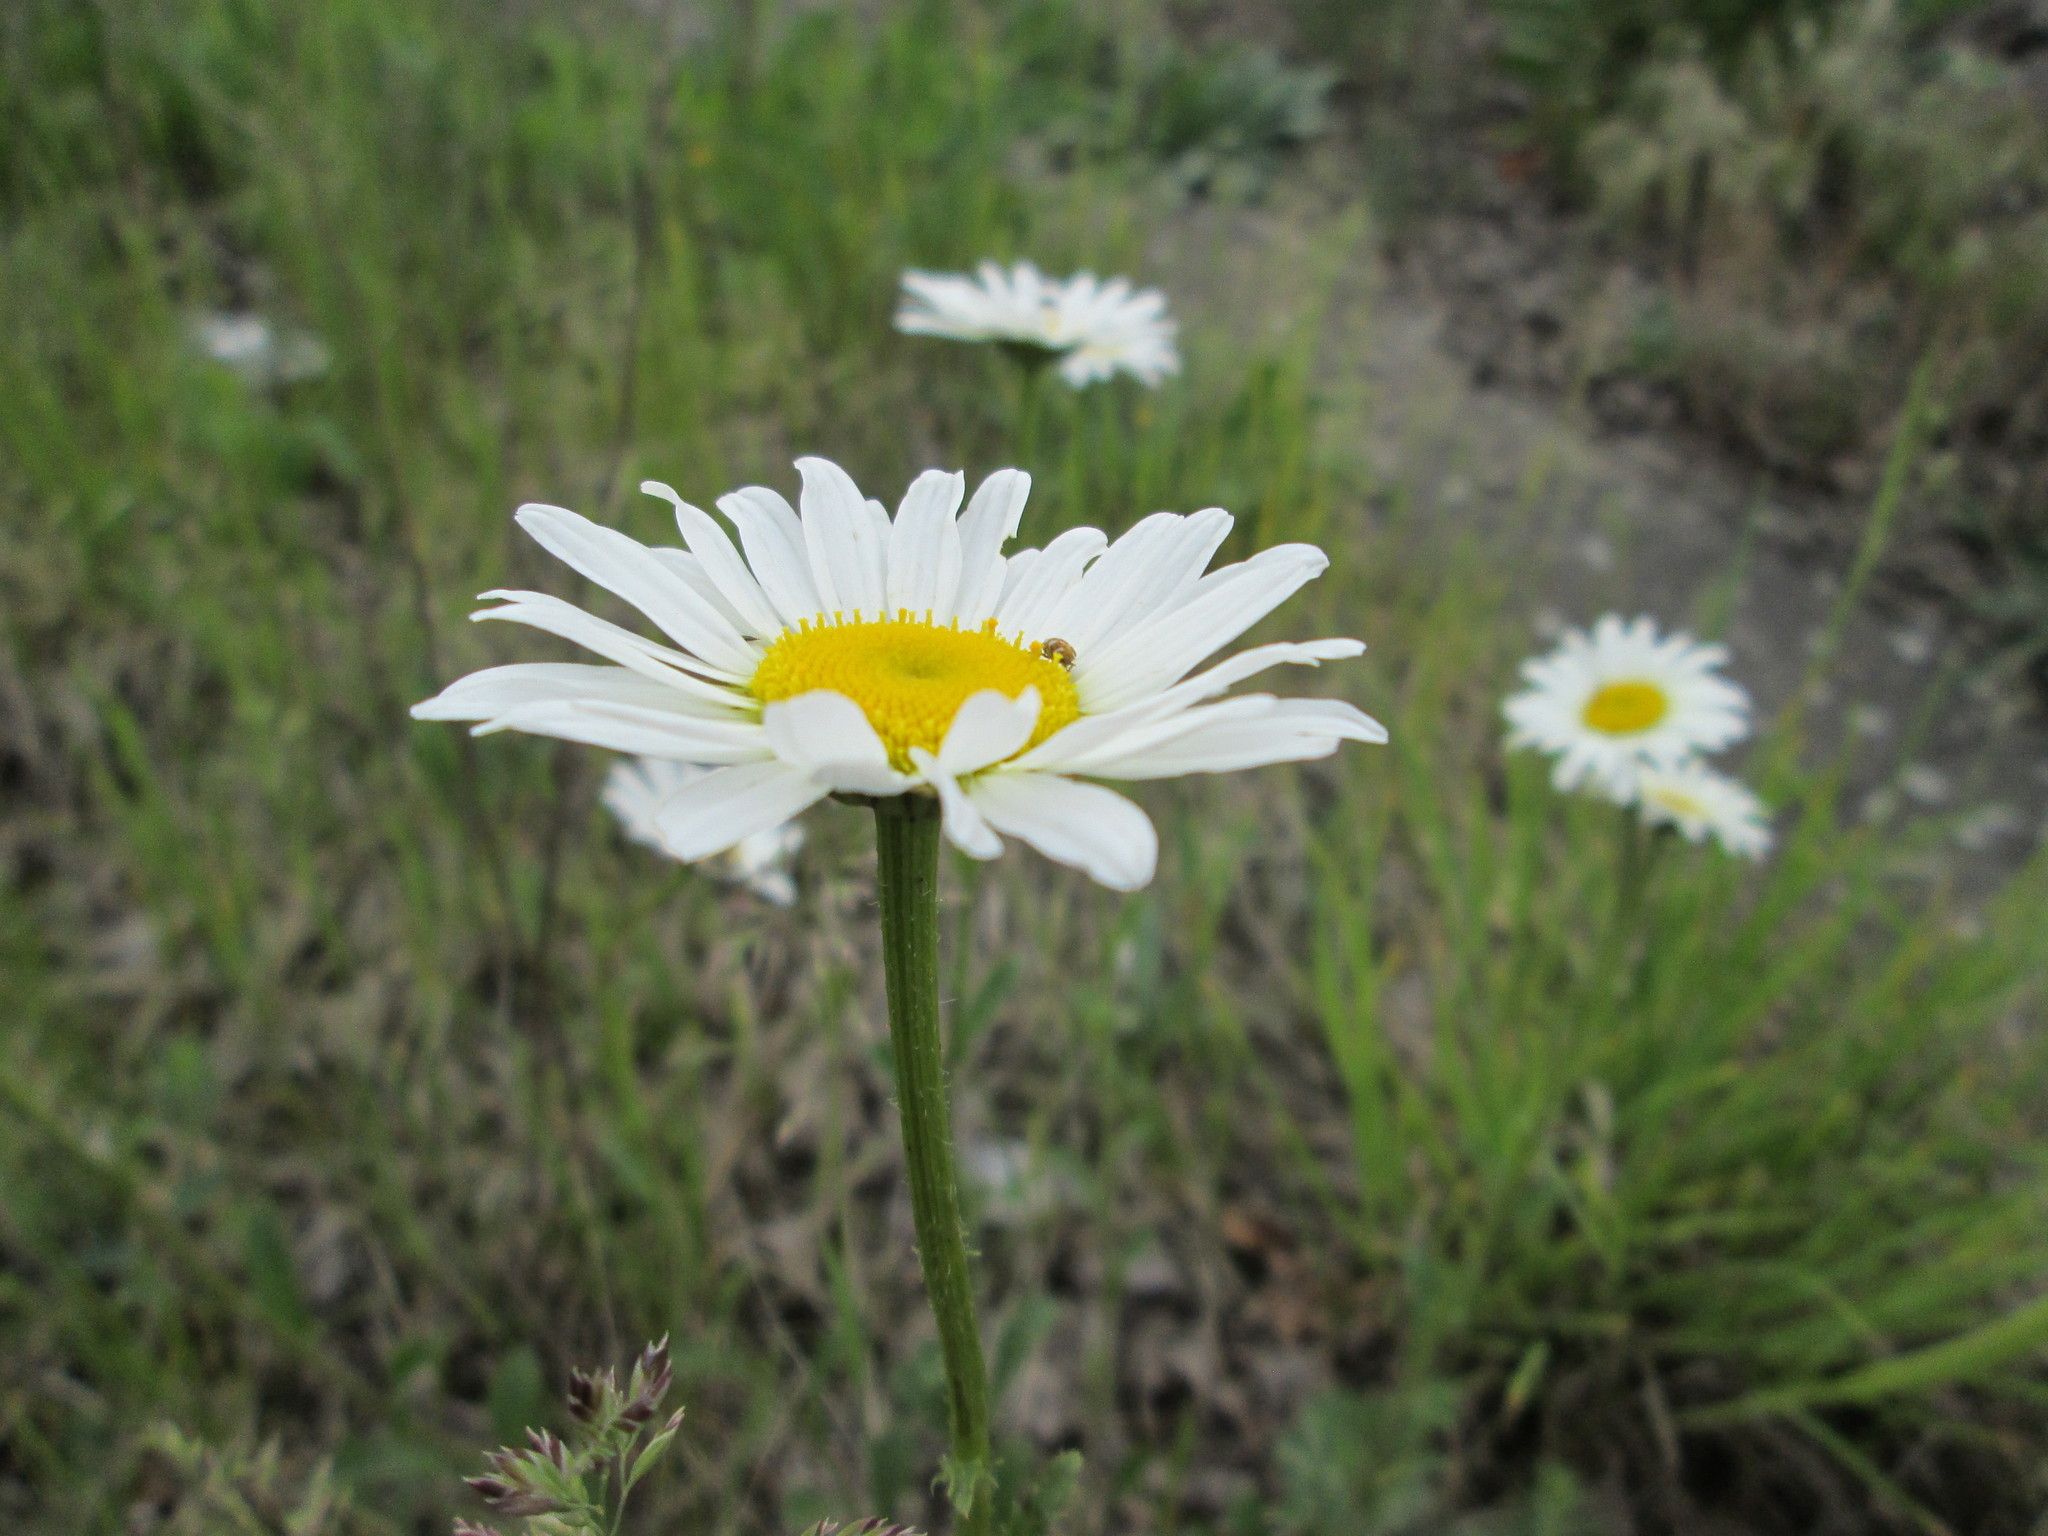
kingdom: Plantae
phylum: Tracheophyta
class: Magnoliopsida
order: Asterales
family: Asteraceae
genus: Leucanthemum
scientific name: Leucanthemum vulgare
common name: Oxeye daisy
